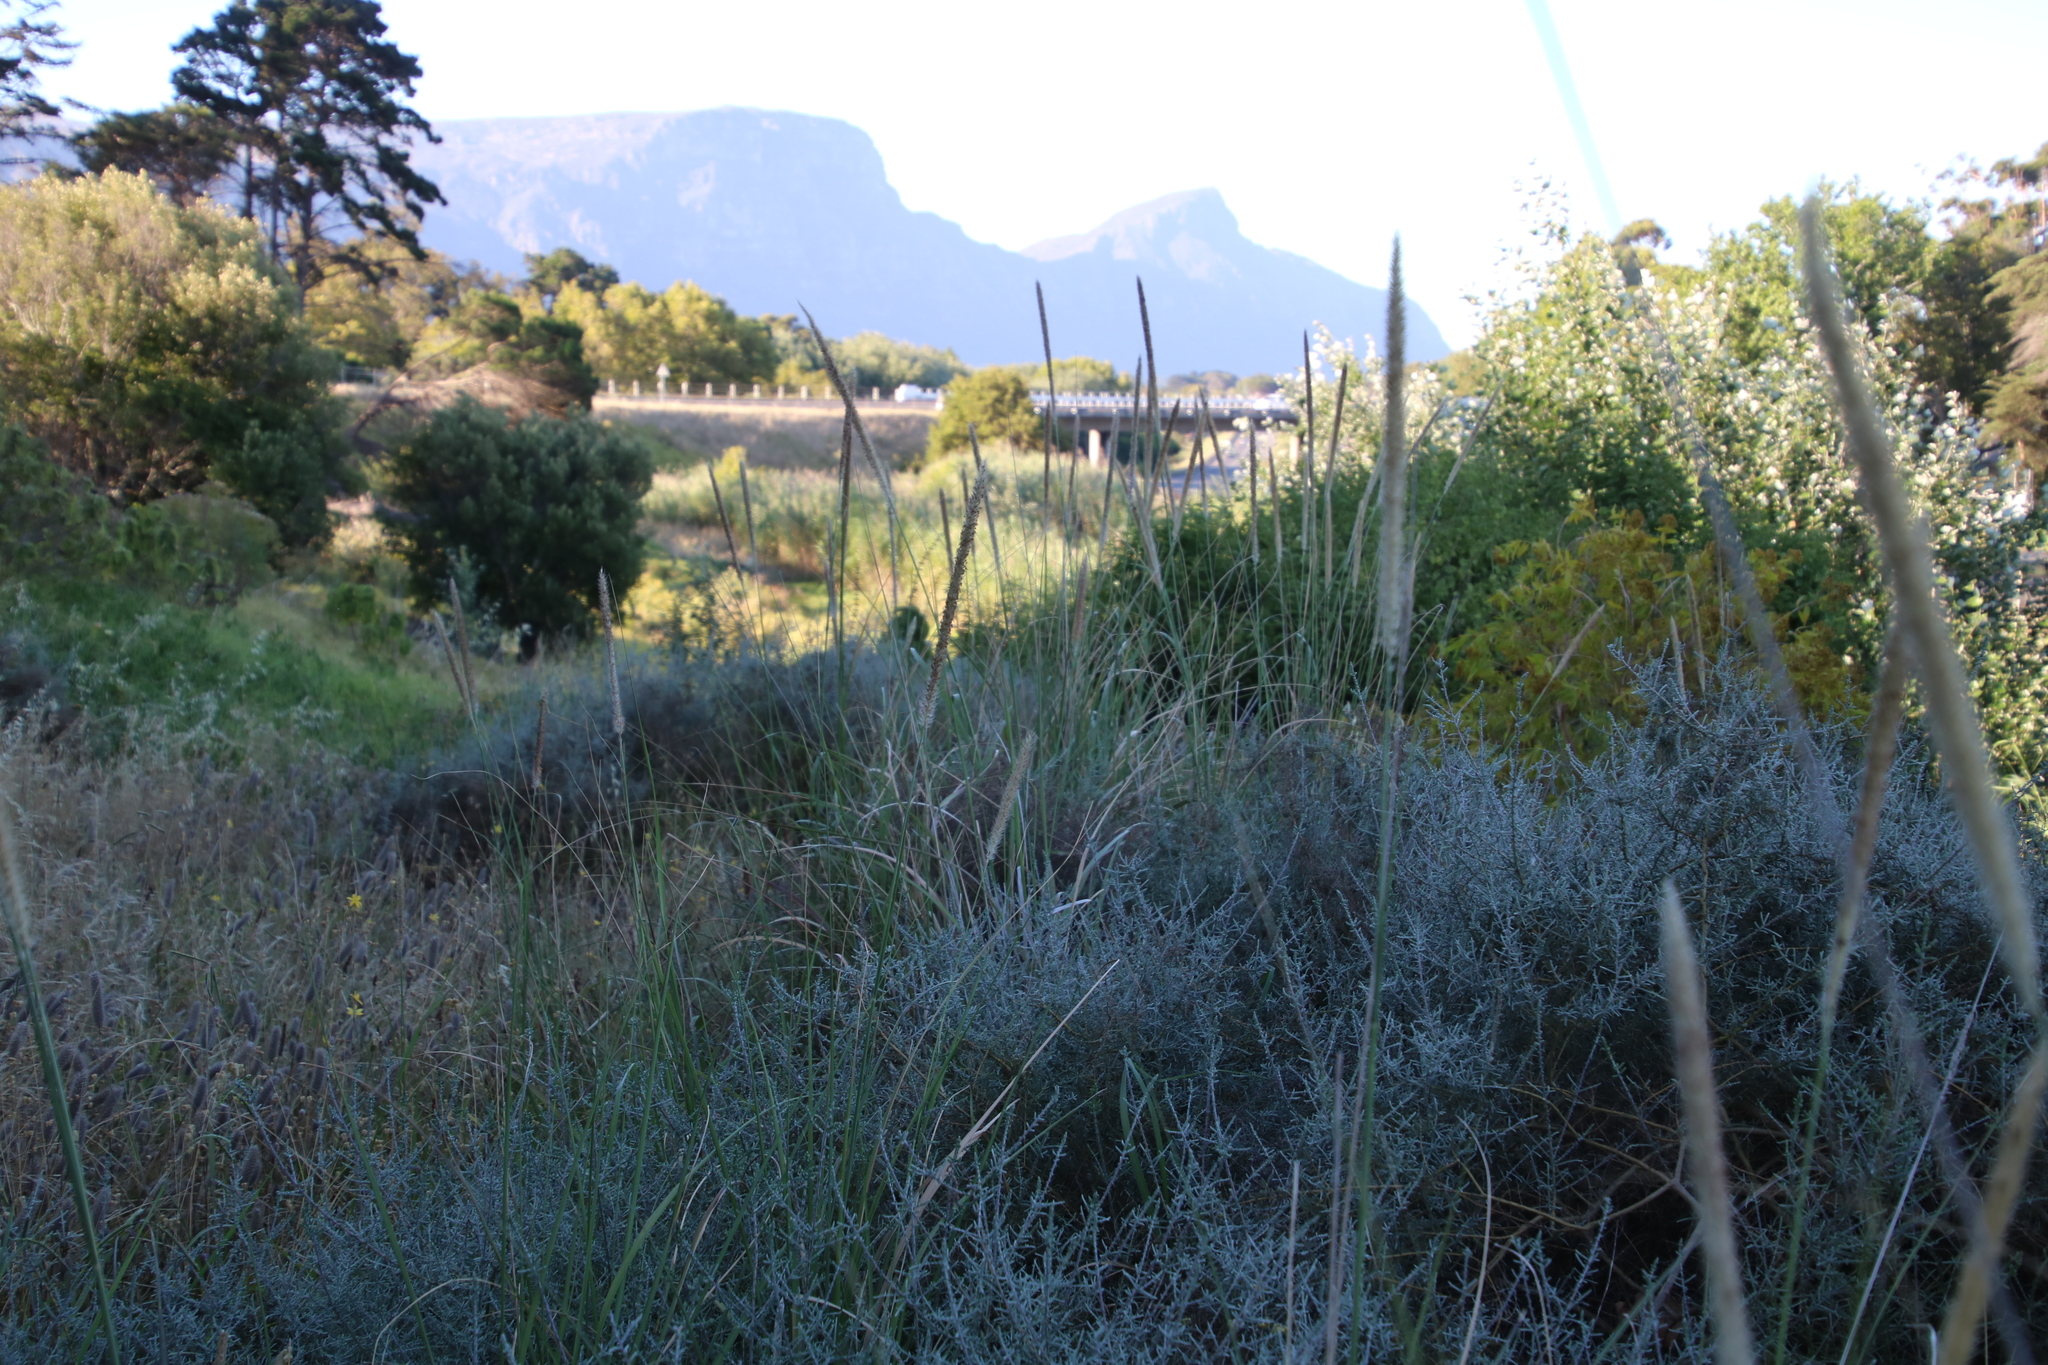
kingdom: Plantae
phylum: Tracheophyta
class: Liliopsida
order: Poales
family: Poaceae
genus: Cenchrus
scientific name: Cenchrus caudatus
